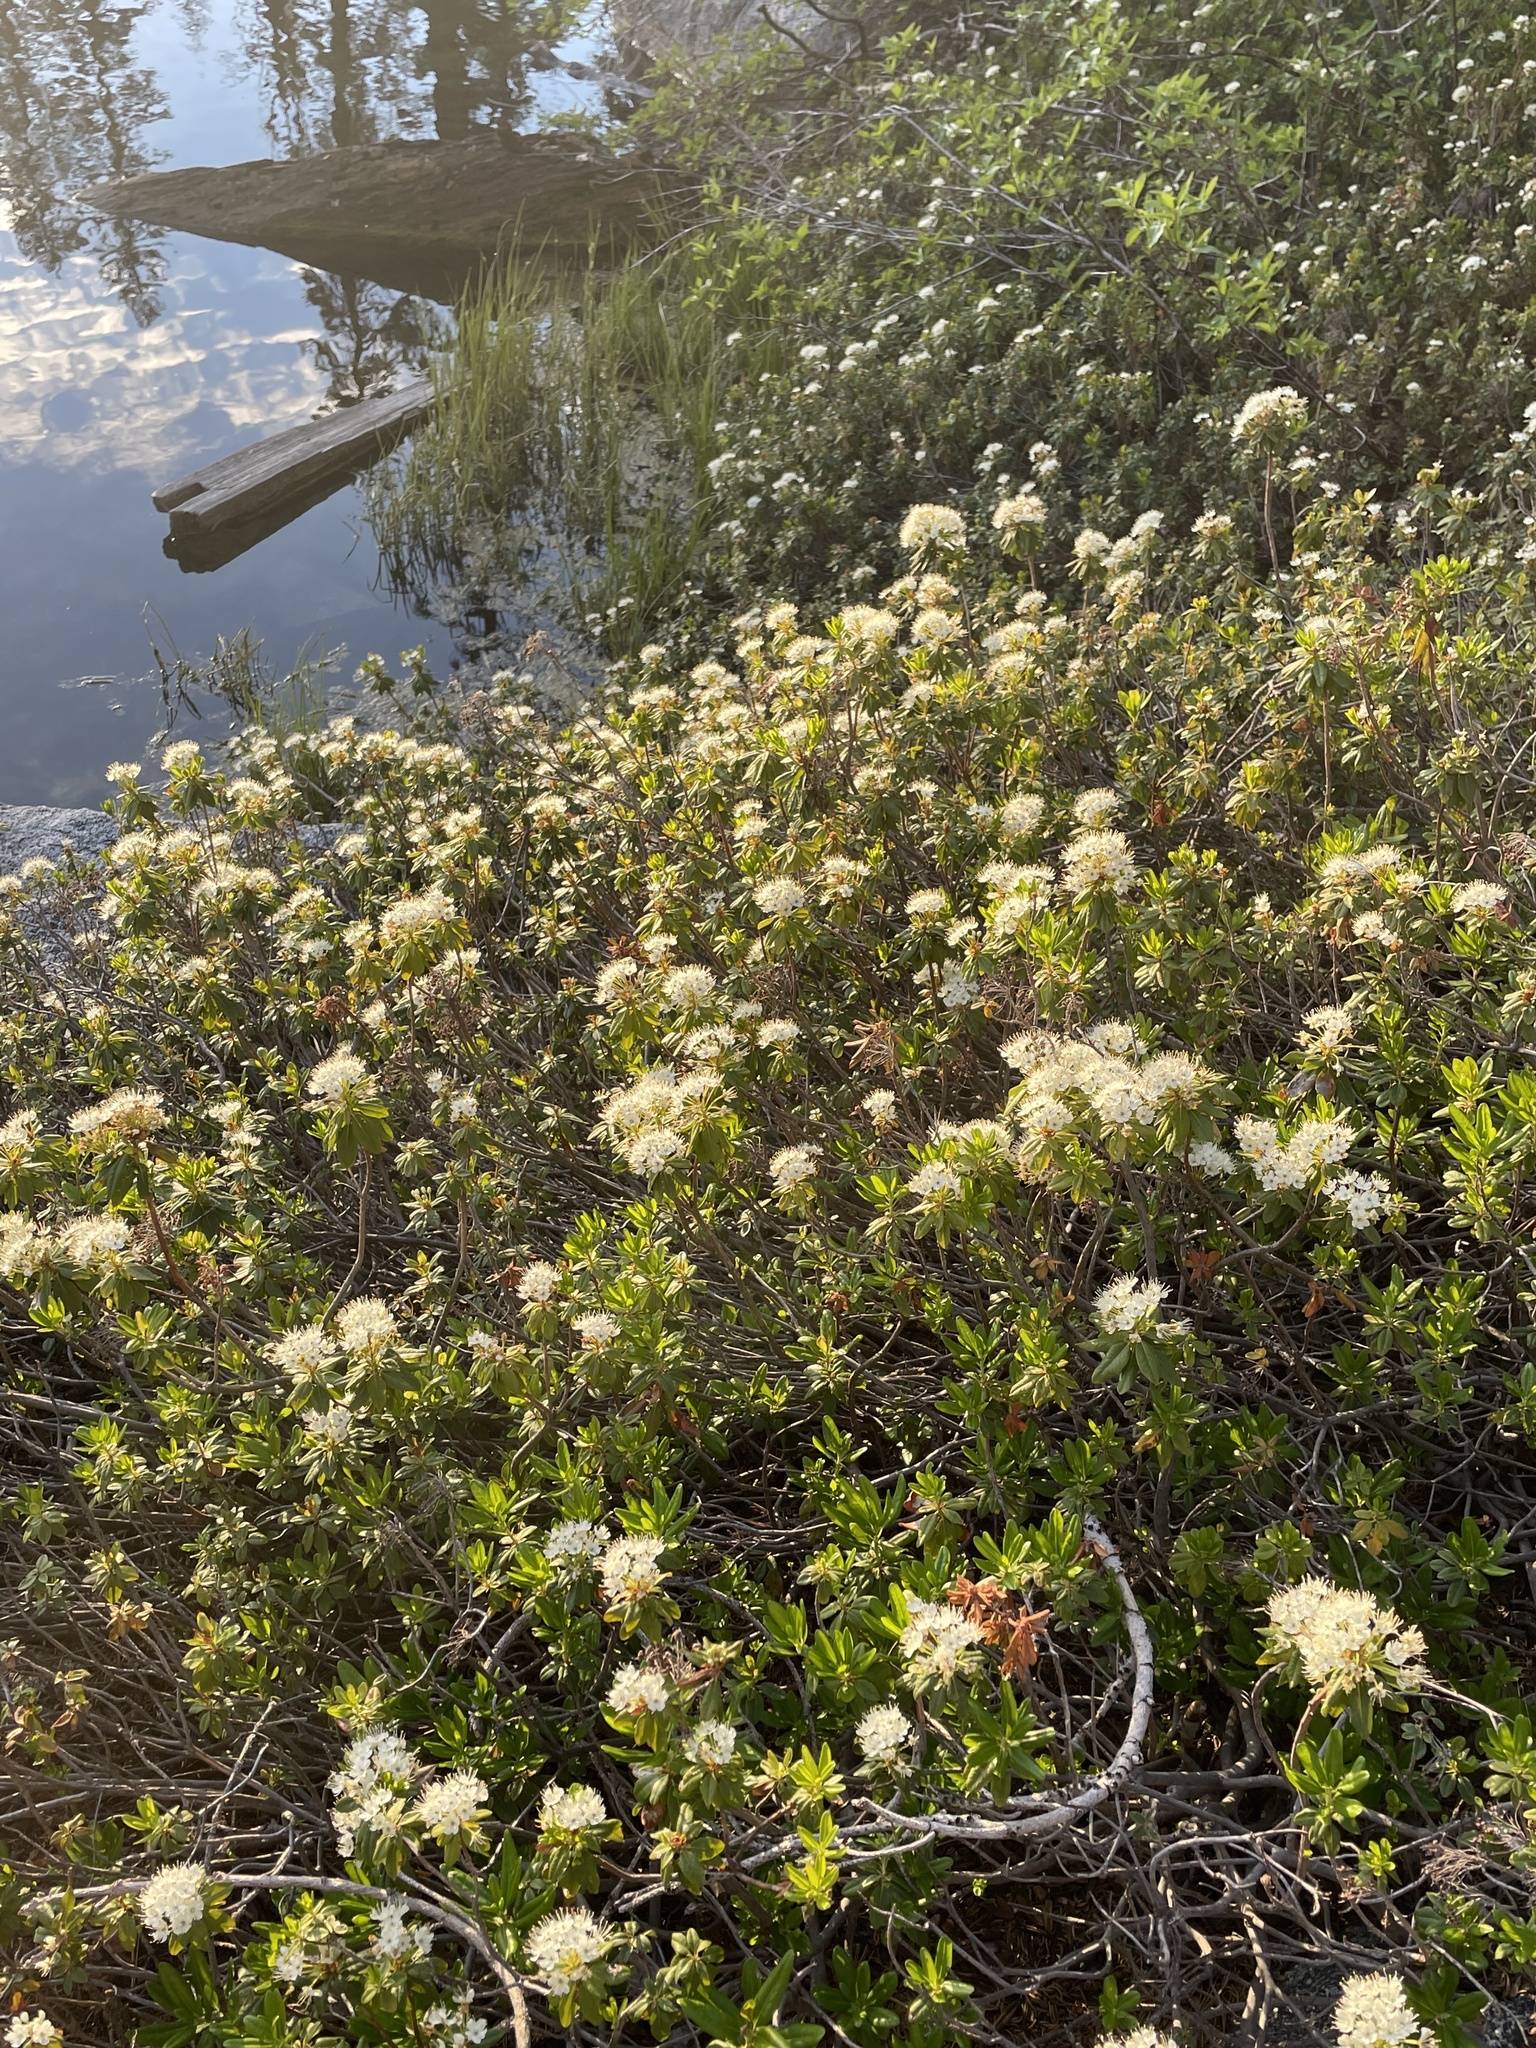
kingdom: Plantae
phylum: Tracheophyta
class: Magnoliopsida
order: Ericales
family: Ericaceae
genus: Rhododendron
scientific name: Rhododendron columbianum
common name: Western labrador tea
